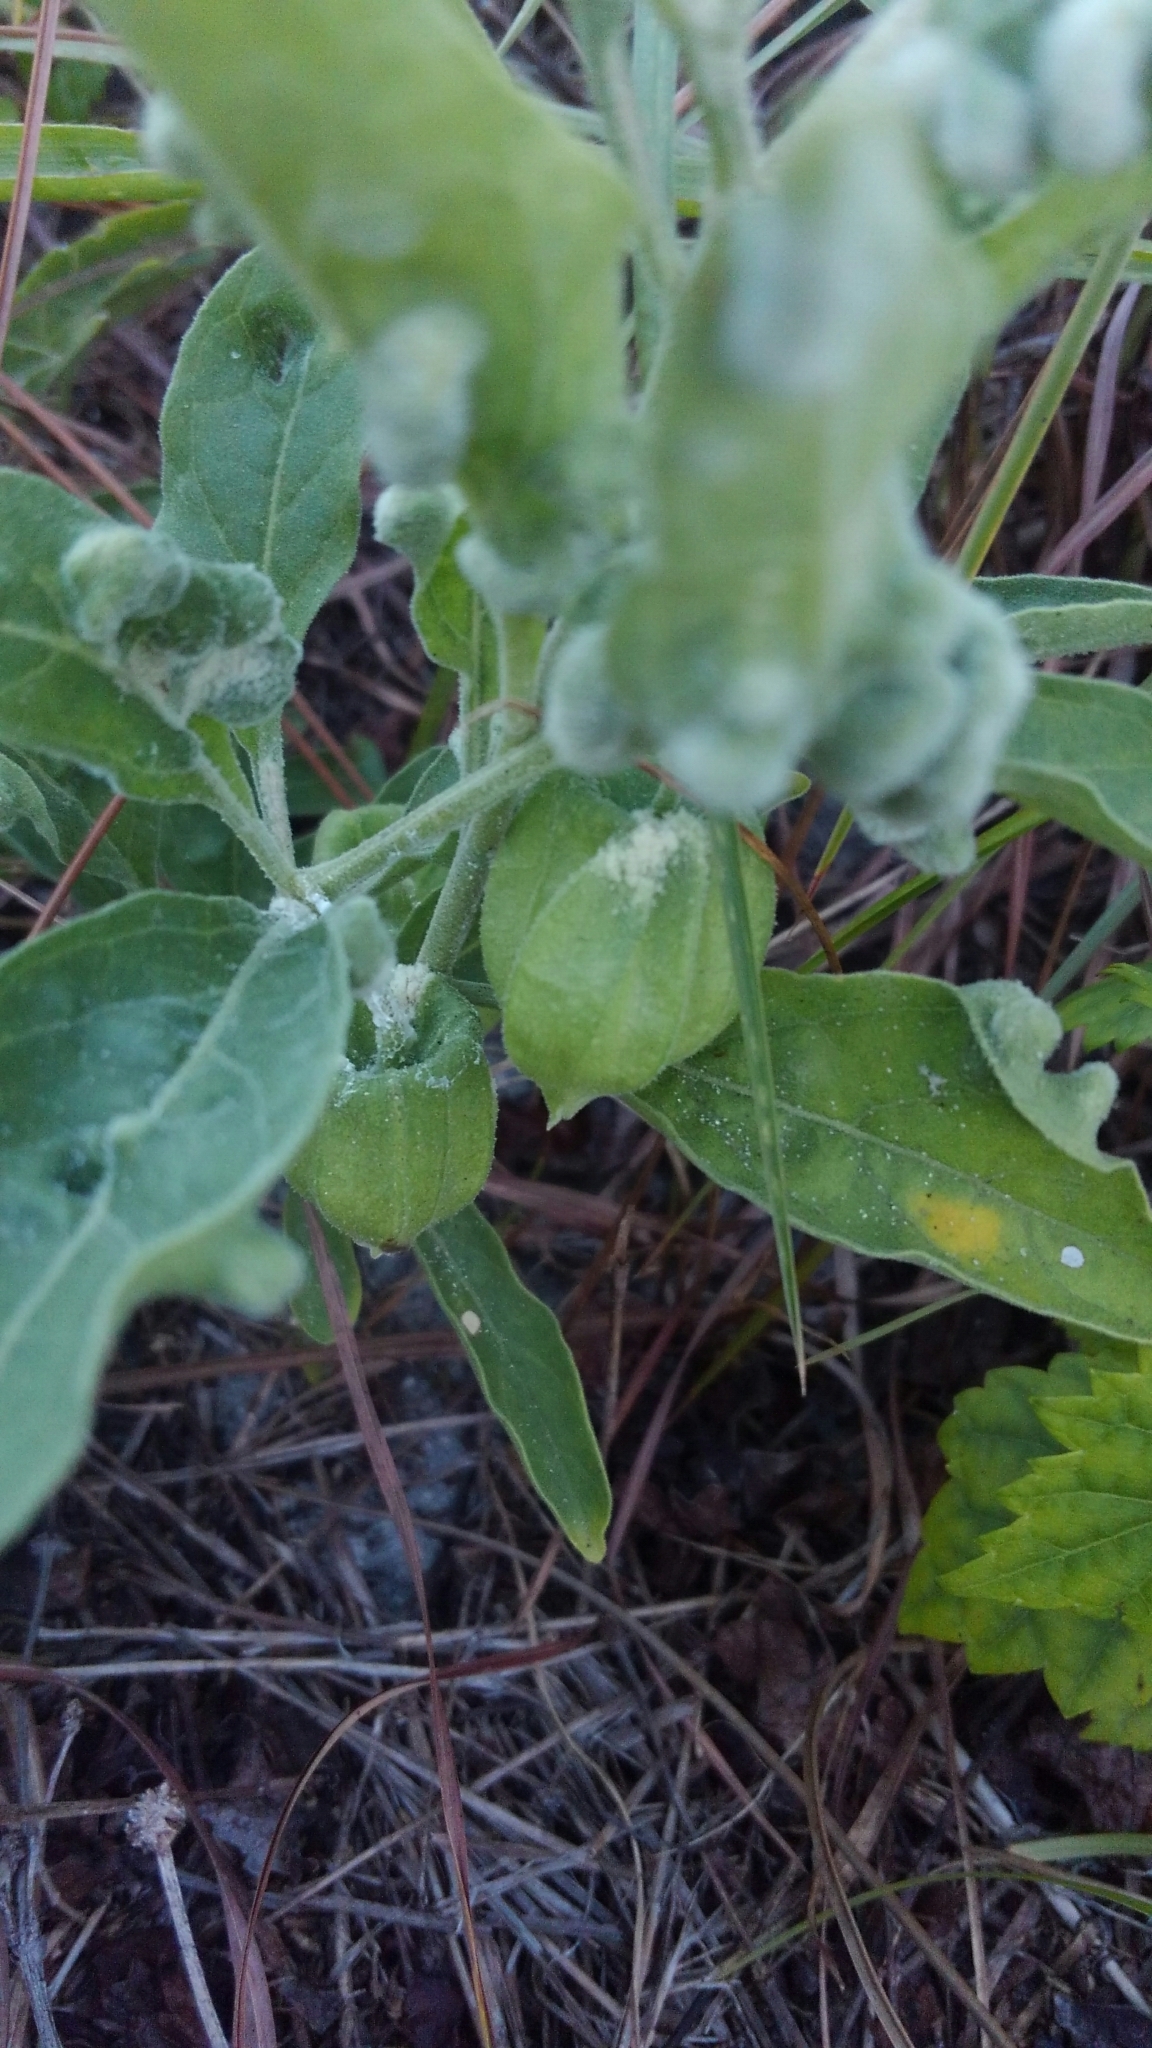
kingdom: Plantae
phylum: Tracheophyta
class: Magnoliopsida
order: Solanales
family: Solanaceae
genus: Physalis
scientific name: Physalis walteri
